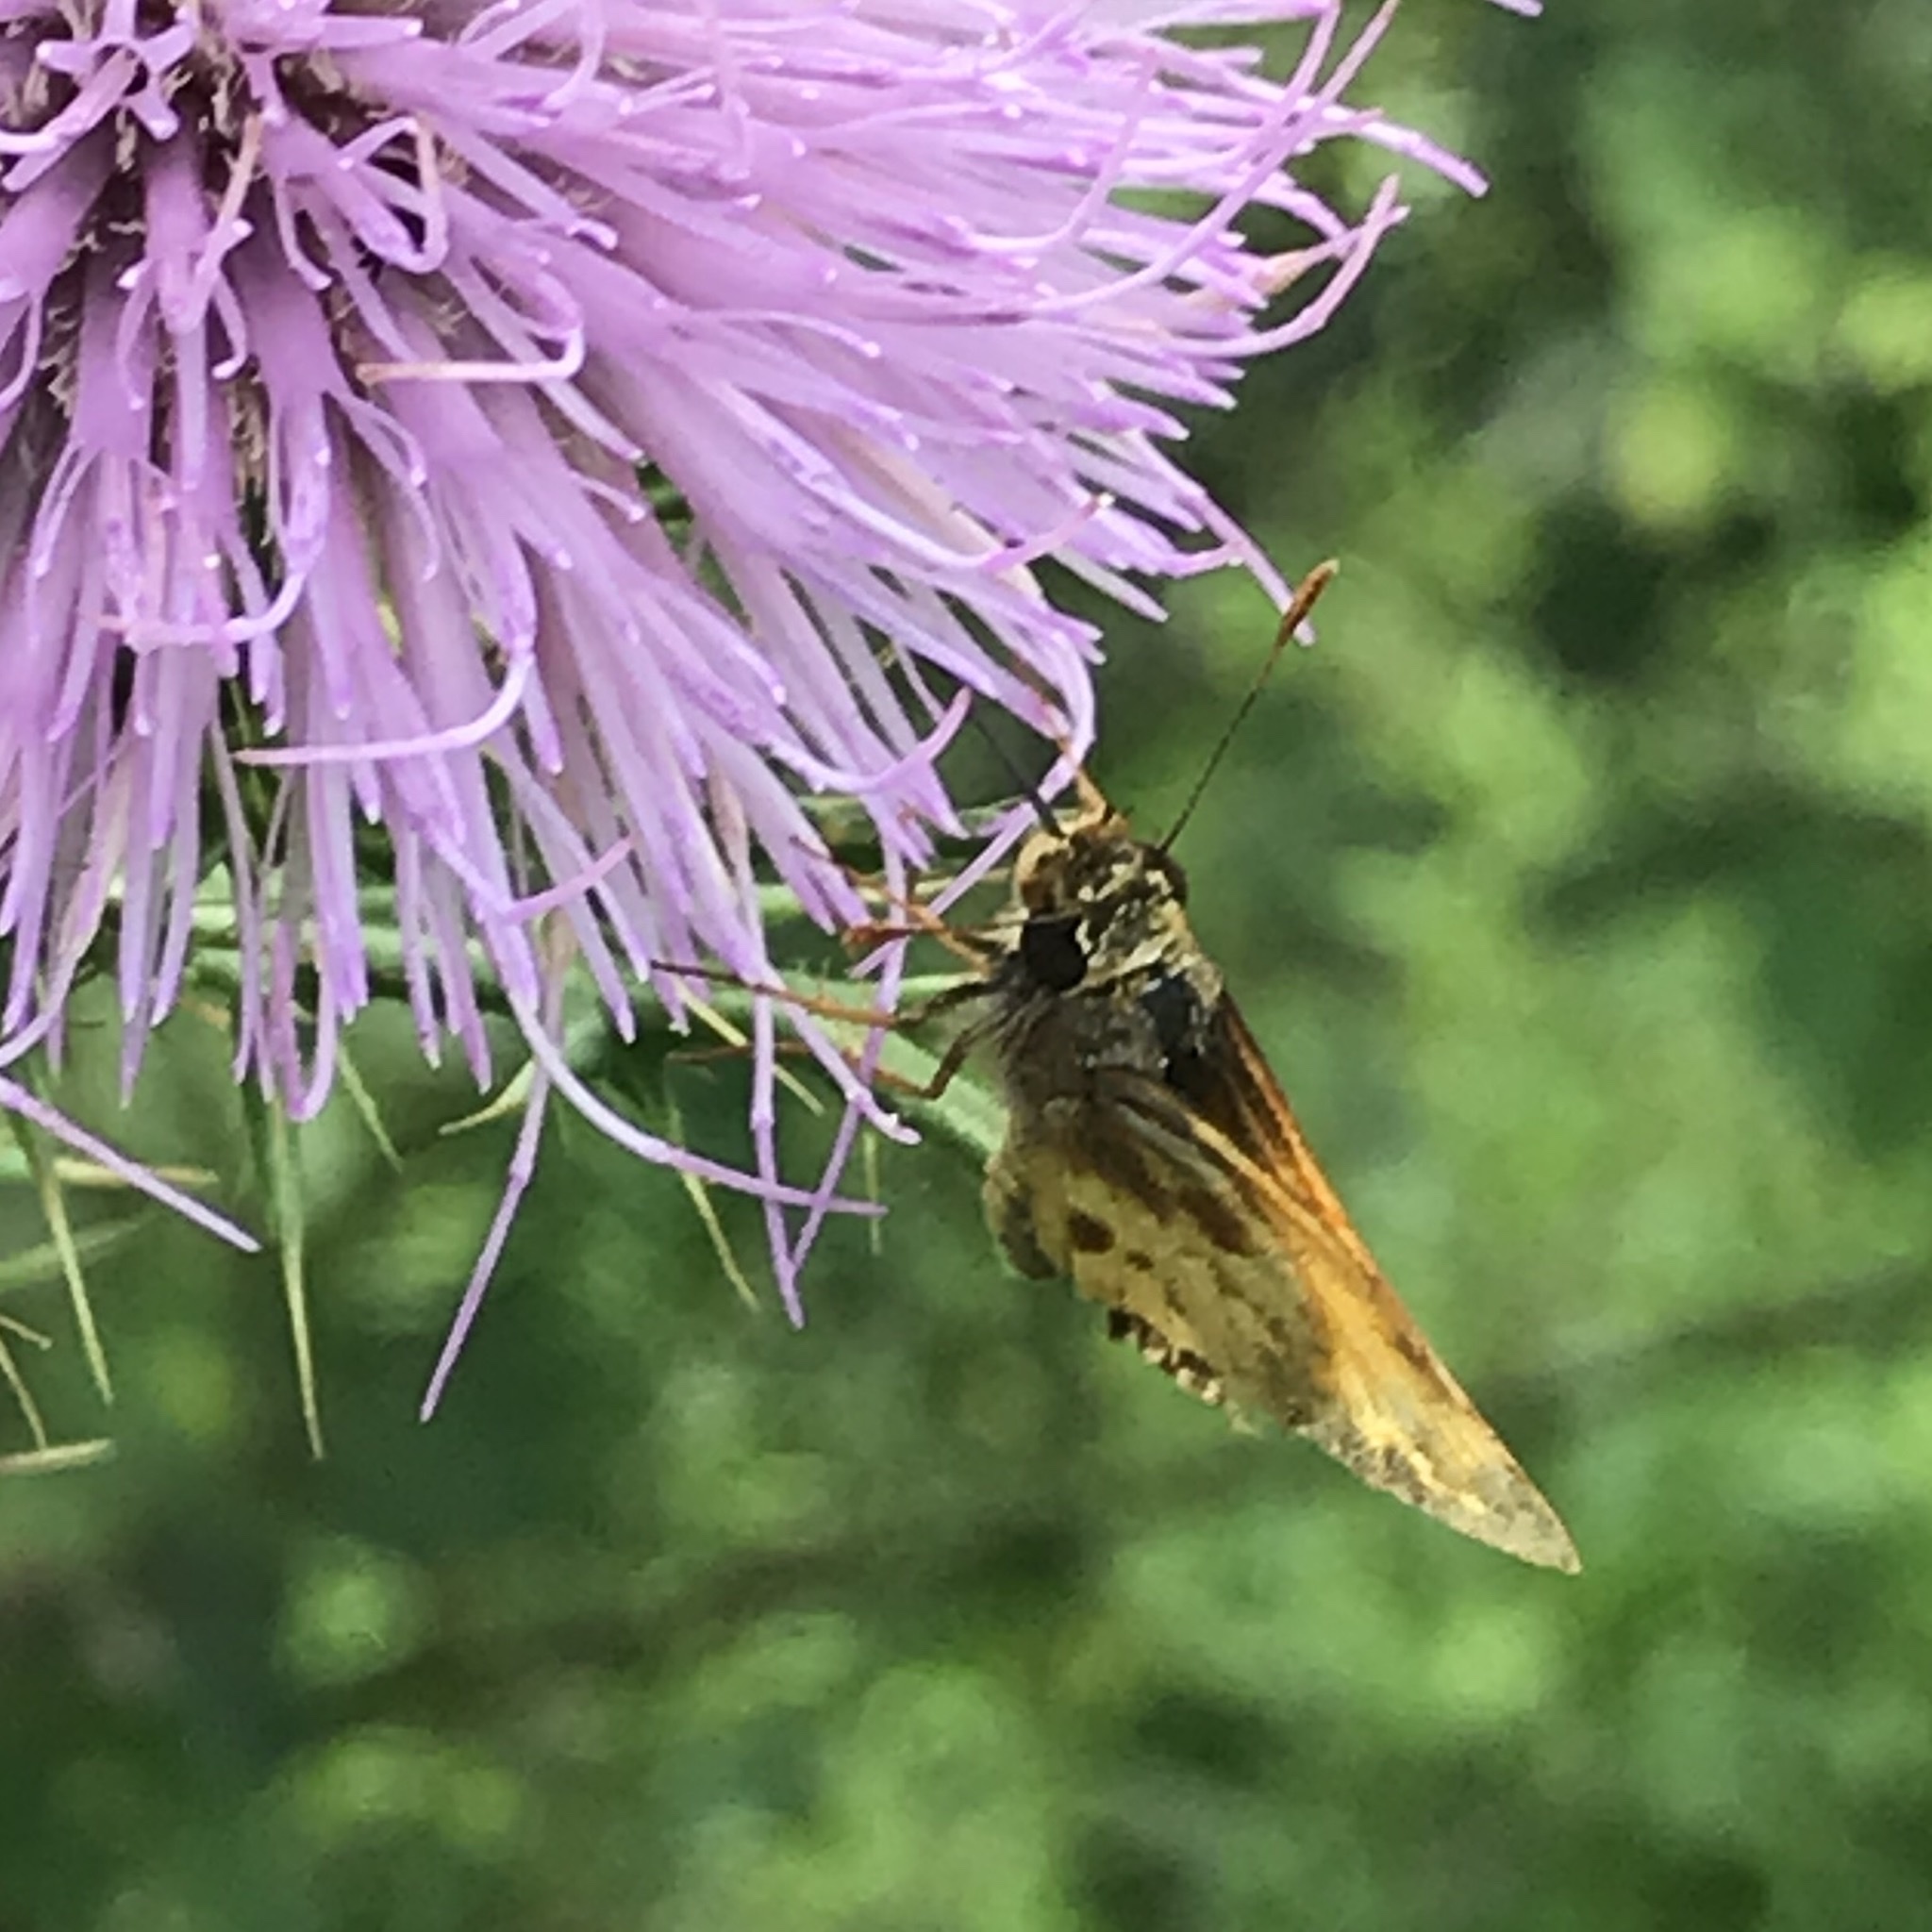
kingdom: Animalia
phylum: Arthropoda
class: Insecta
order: Lepidoptera
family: Hesperiidae
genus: Lon
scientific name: Lon zabulon
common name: Zabulon skipper
